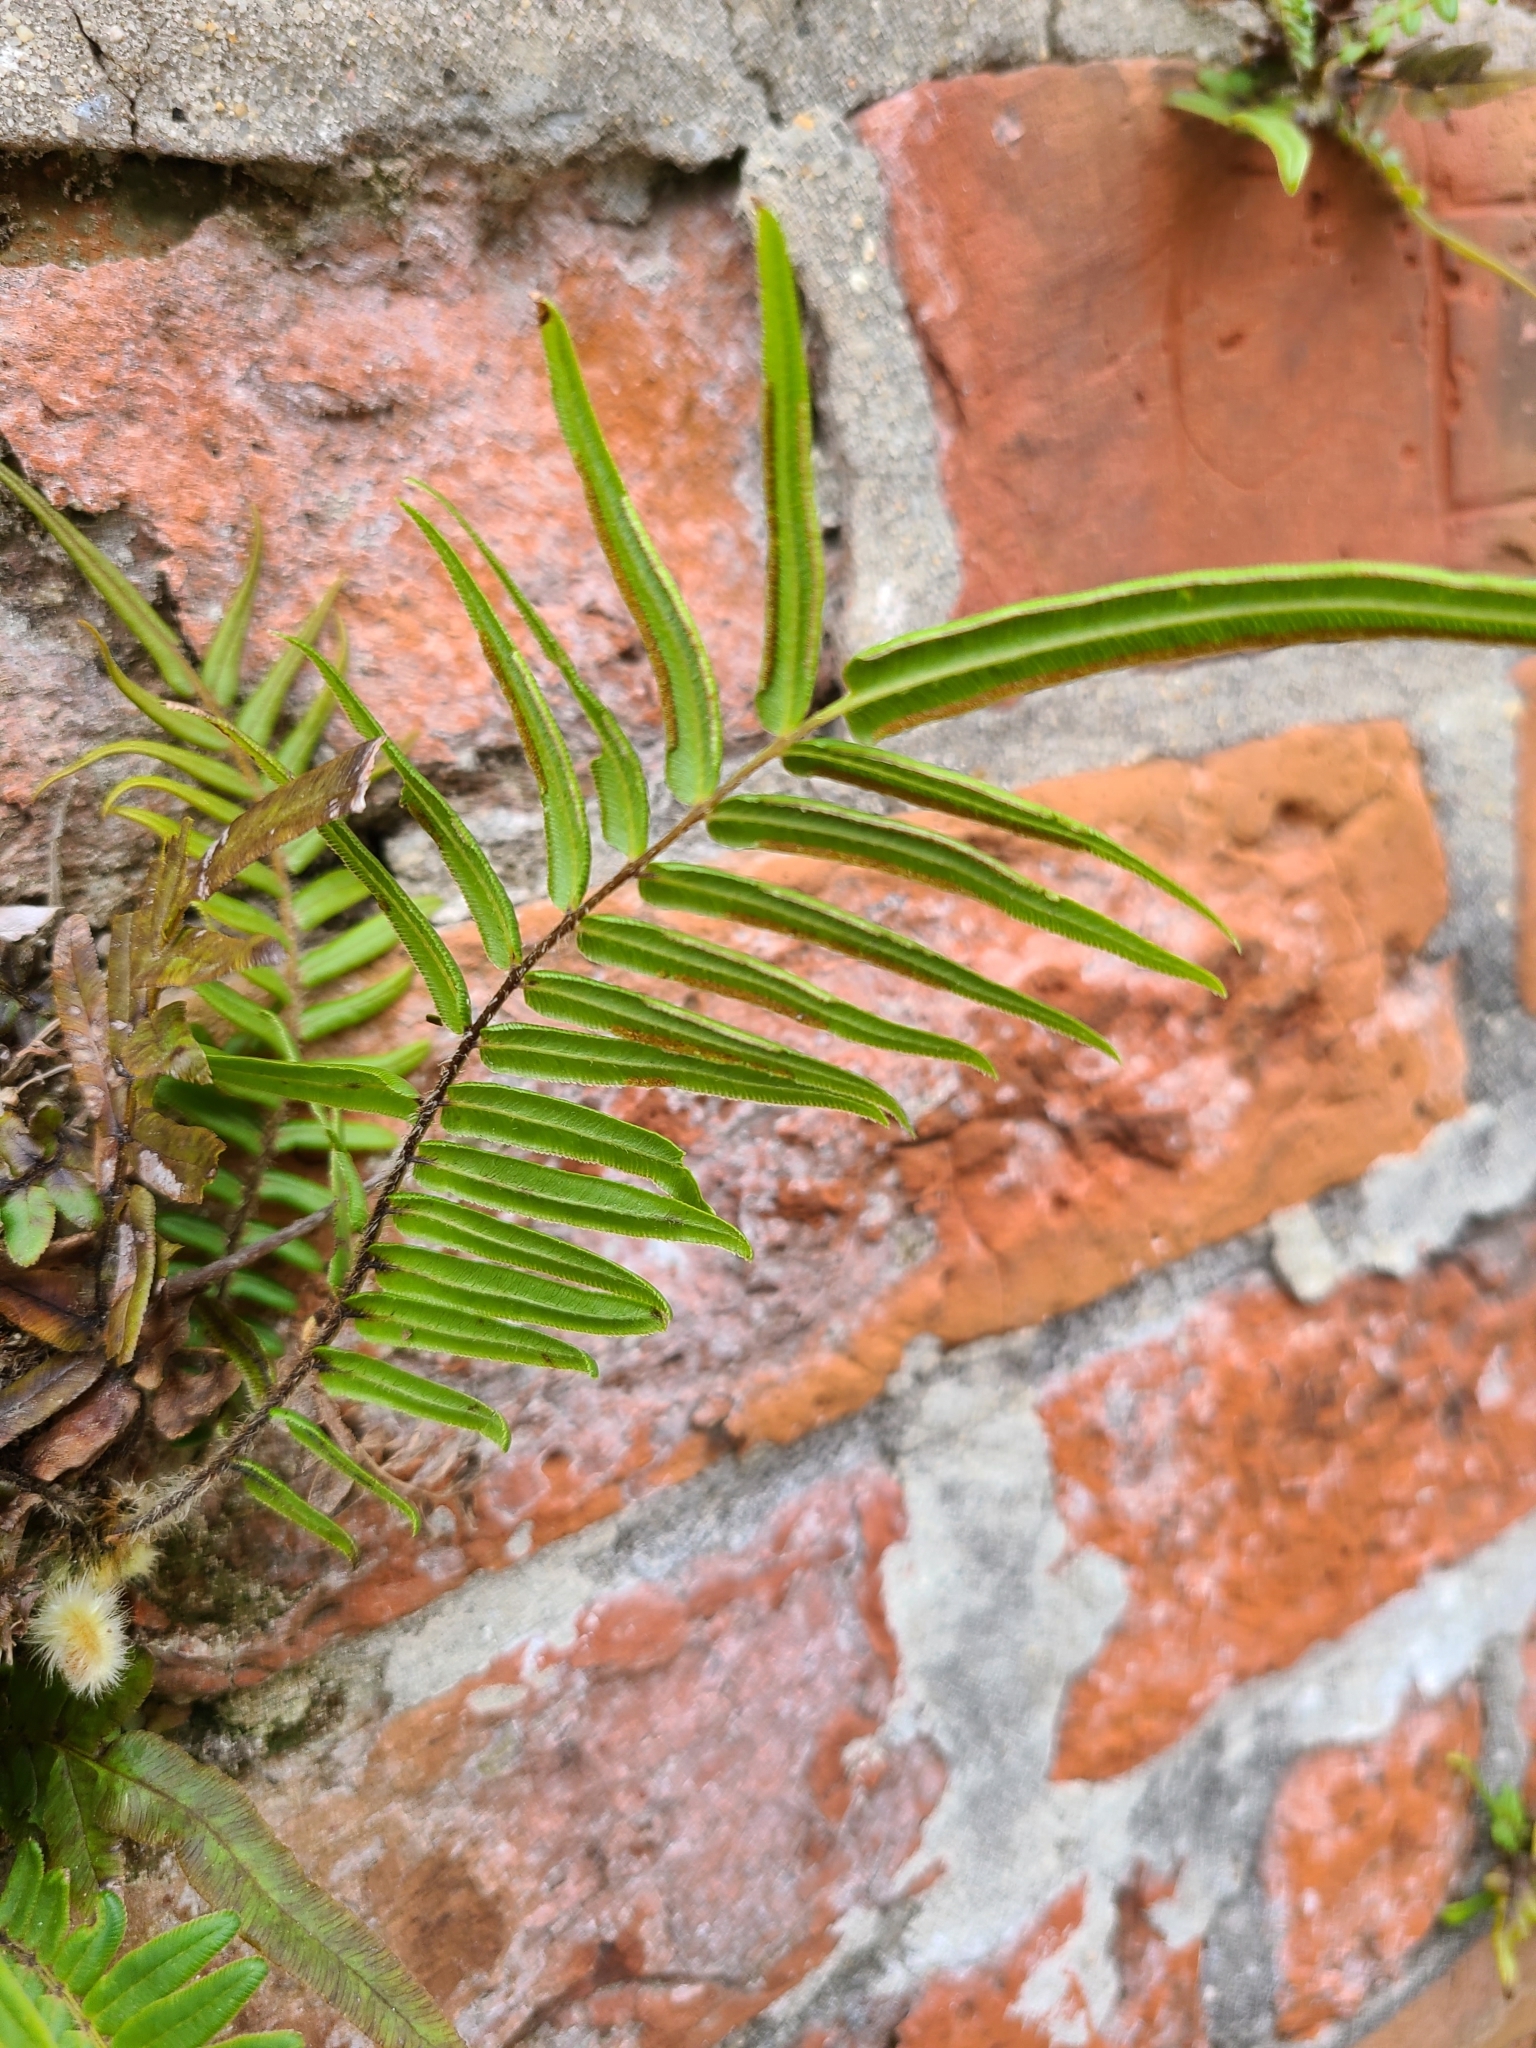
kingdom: Plantae
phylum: Tracheophyta
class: Polypodiopsida
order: Polypodiales
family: Pteridaceae
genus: Pteris
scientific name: Pteris vittata
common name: Ladder brake
